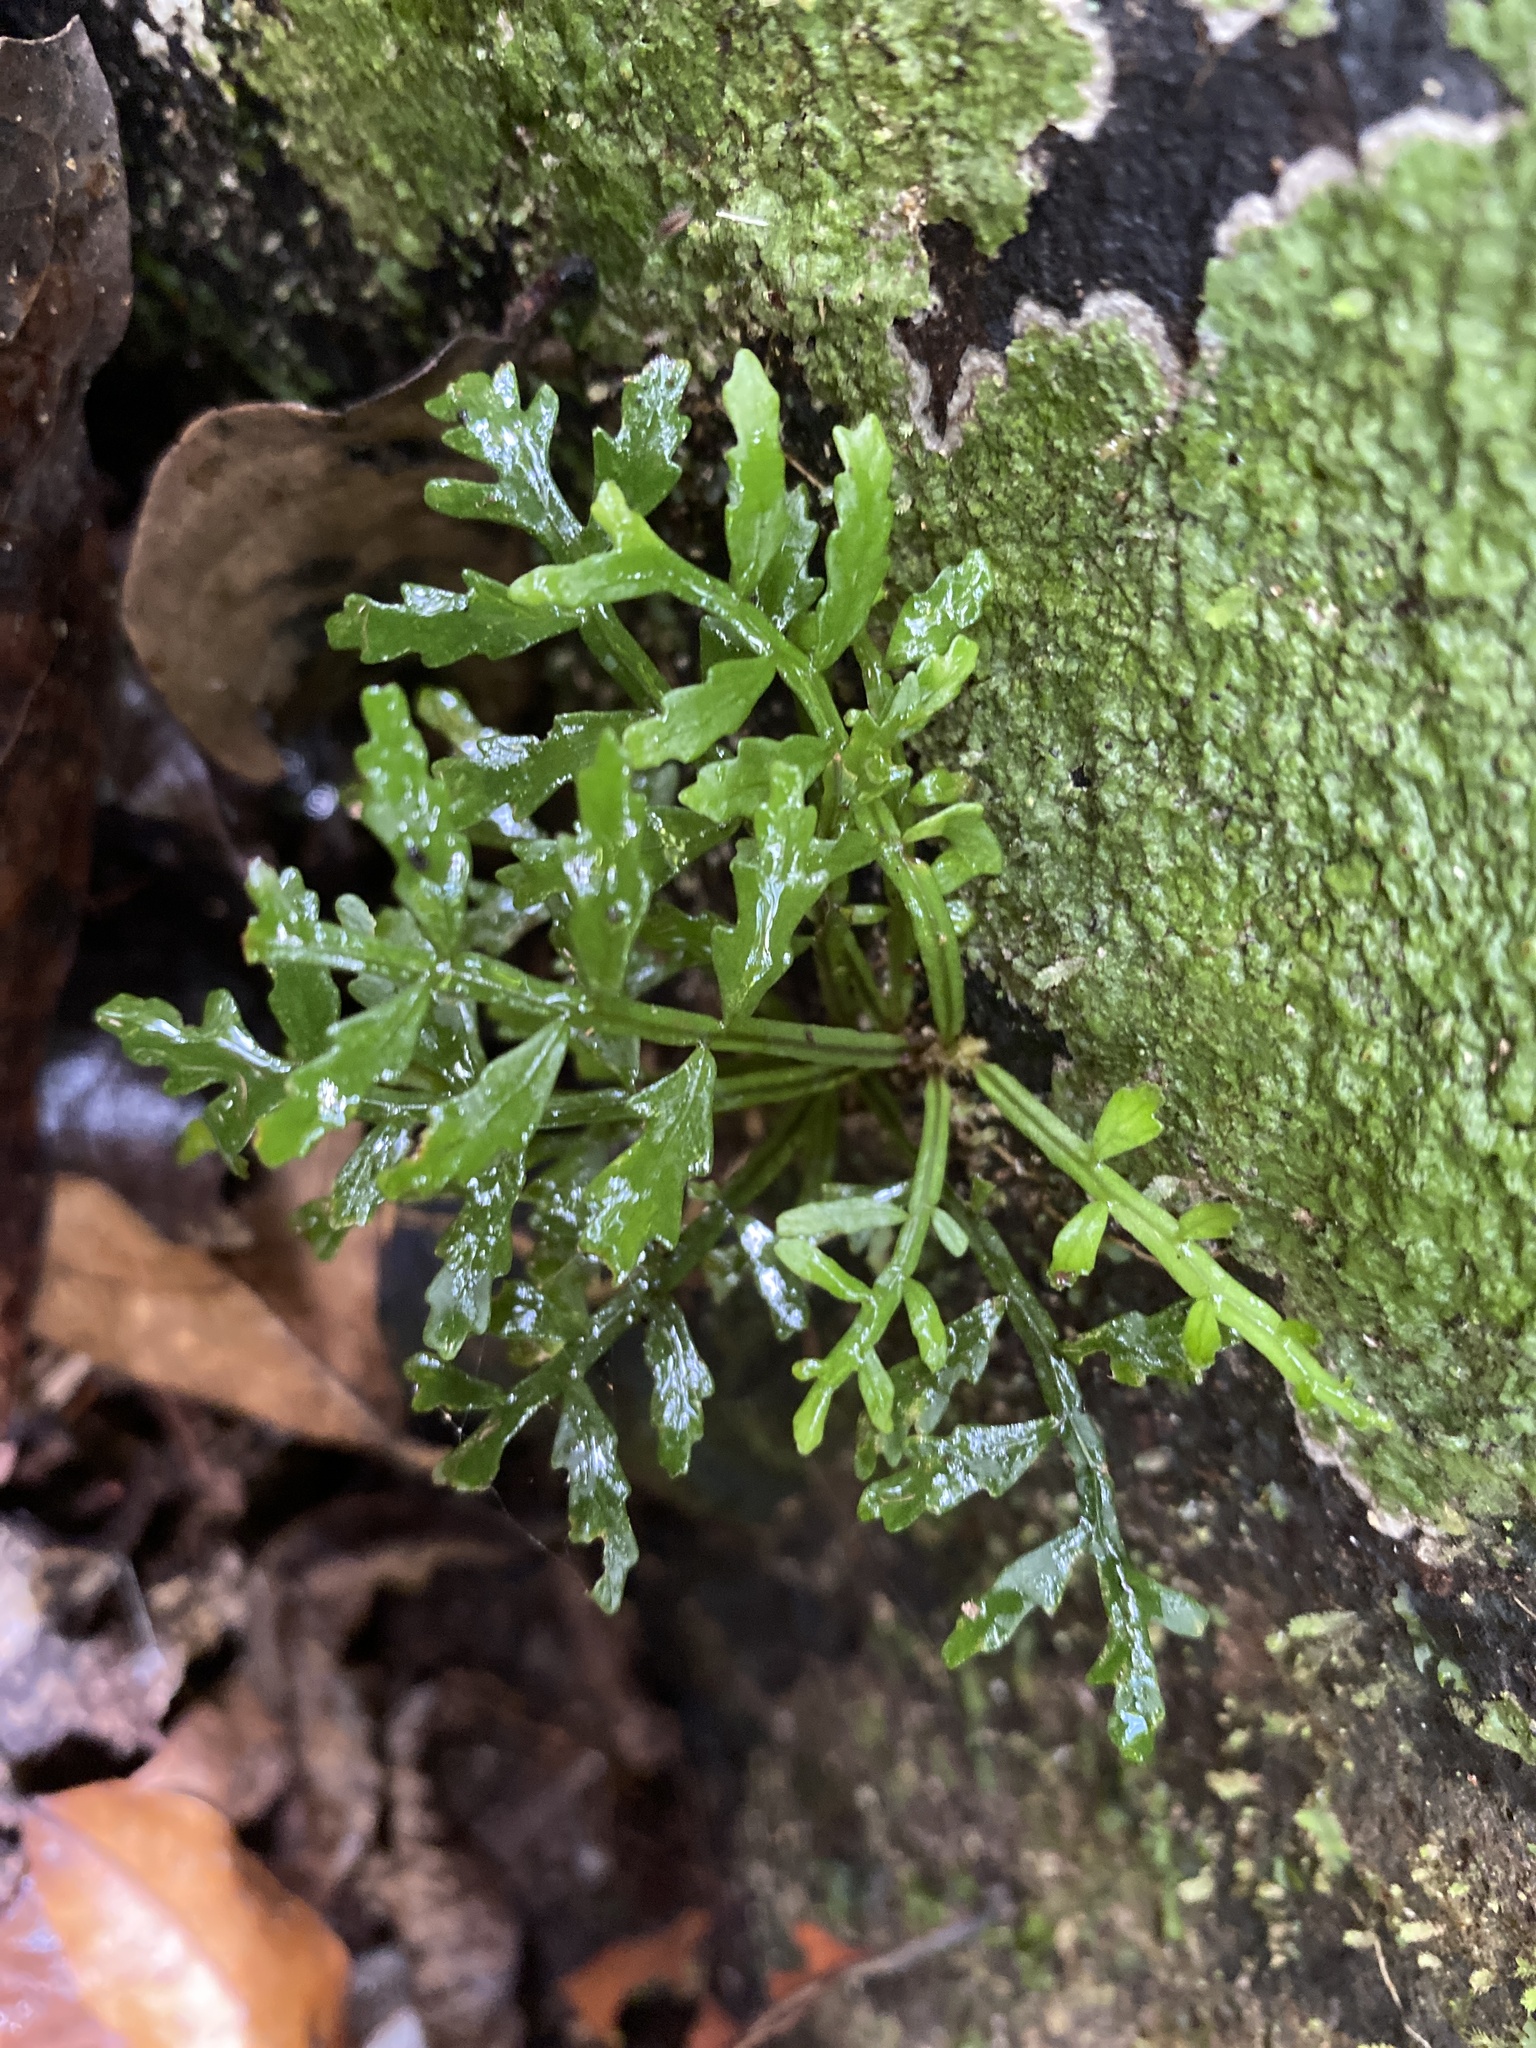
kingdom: Plantae
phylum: Tracheophyta
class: Polypodiopsida
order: Marattiales
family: Marattiaceae
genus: Danaea
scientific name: Danaea wendlandii
